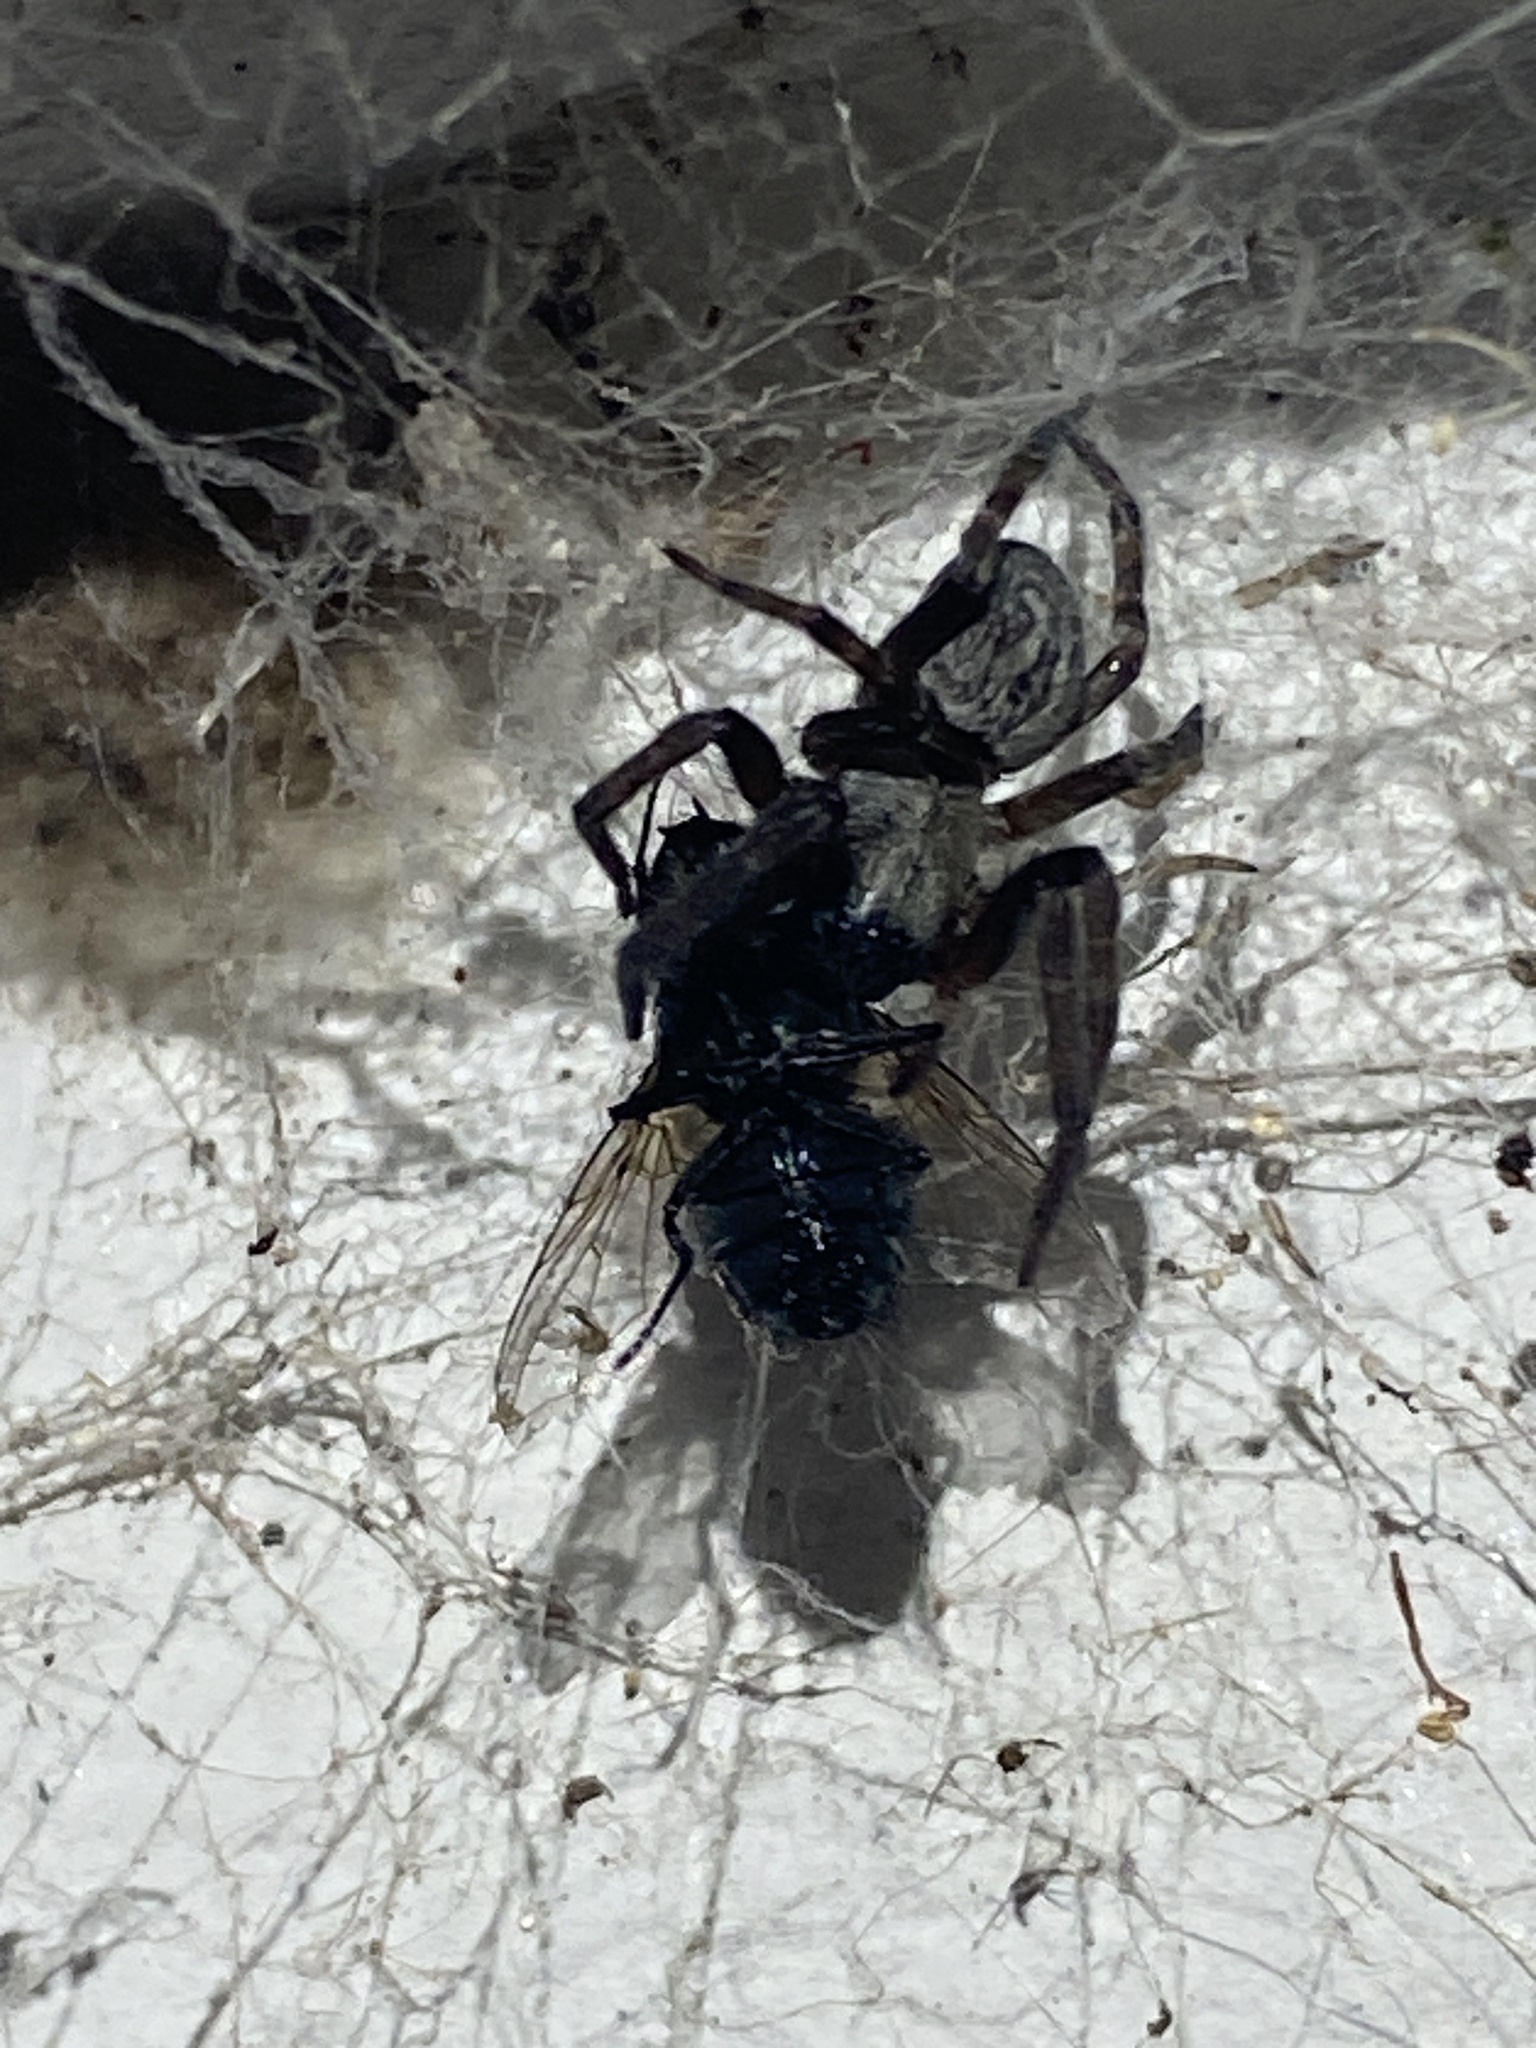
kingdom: Animalia
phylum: Arthropoda
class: Arachnida
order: Araneae
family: Desidae
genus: Badumna
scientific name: Badumna longinqua
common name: Gray house spider
